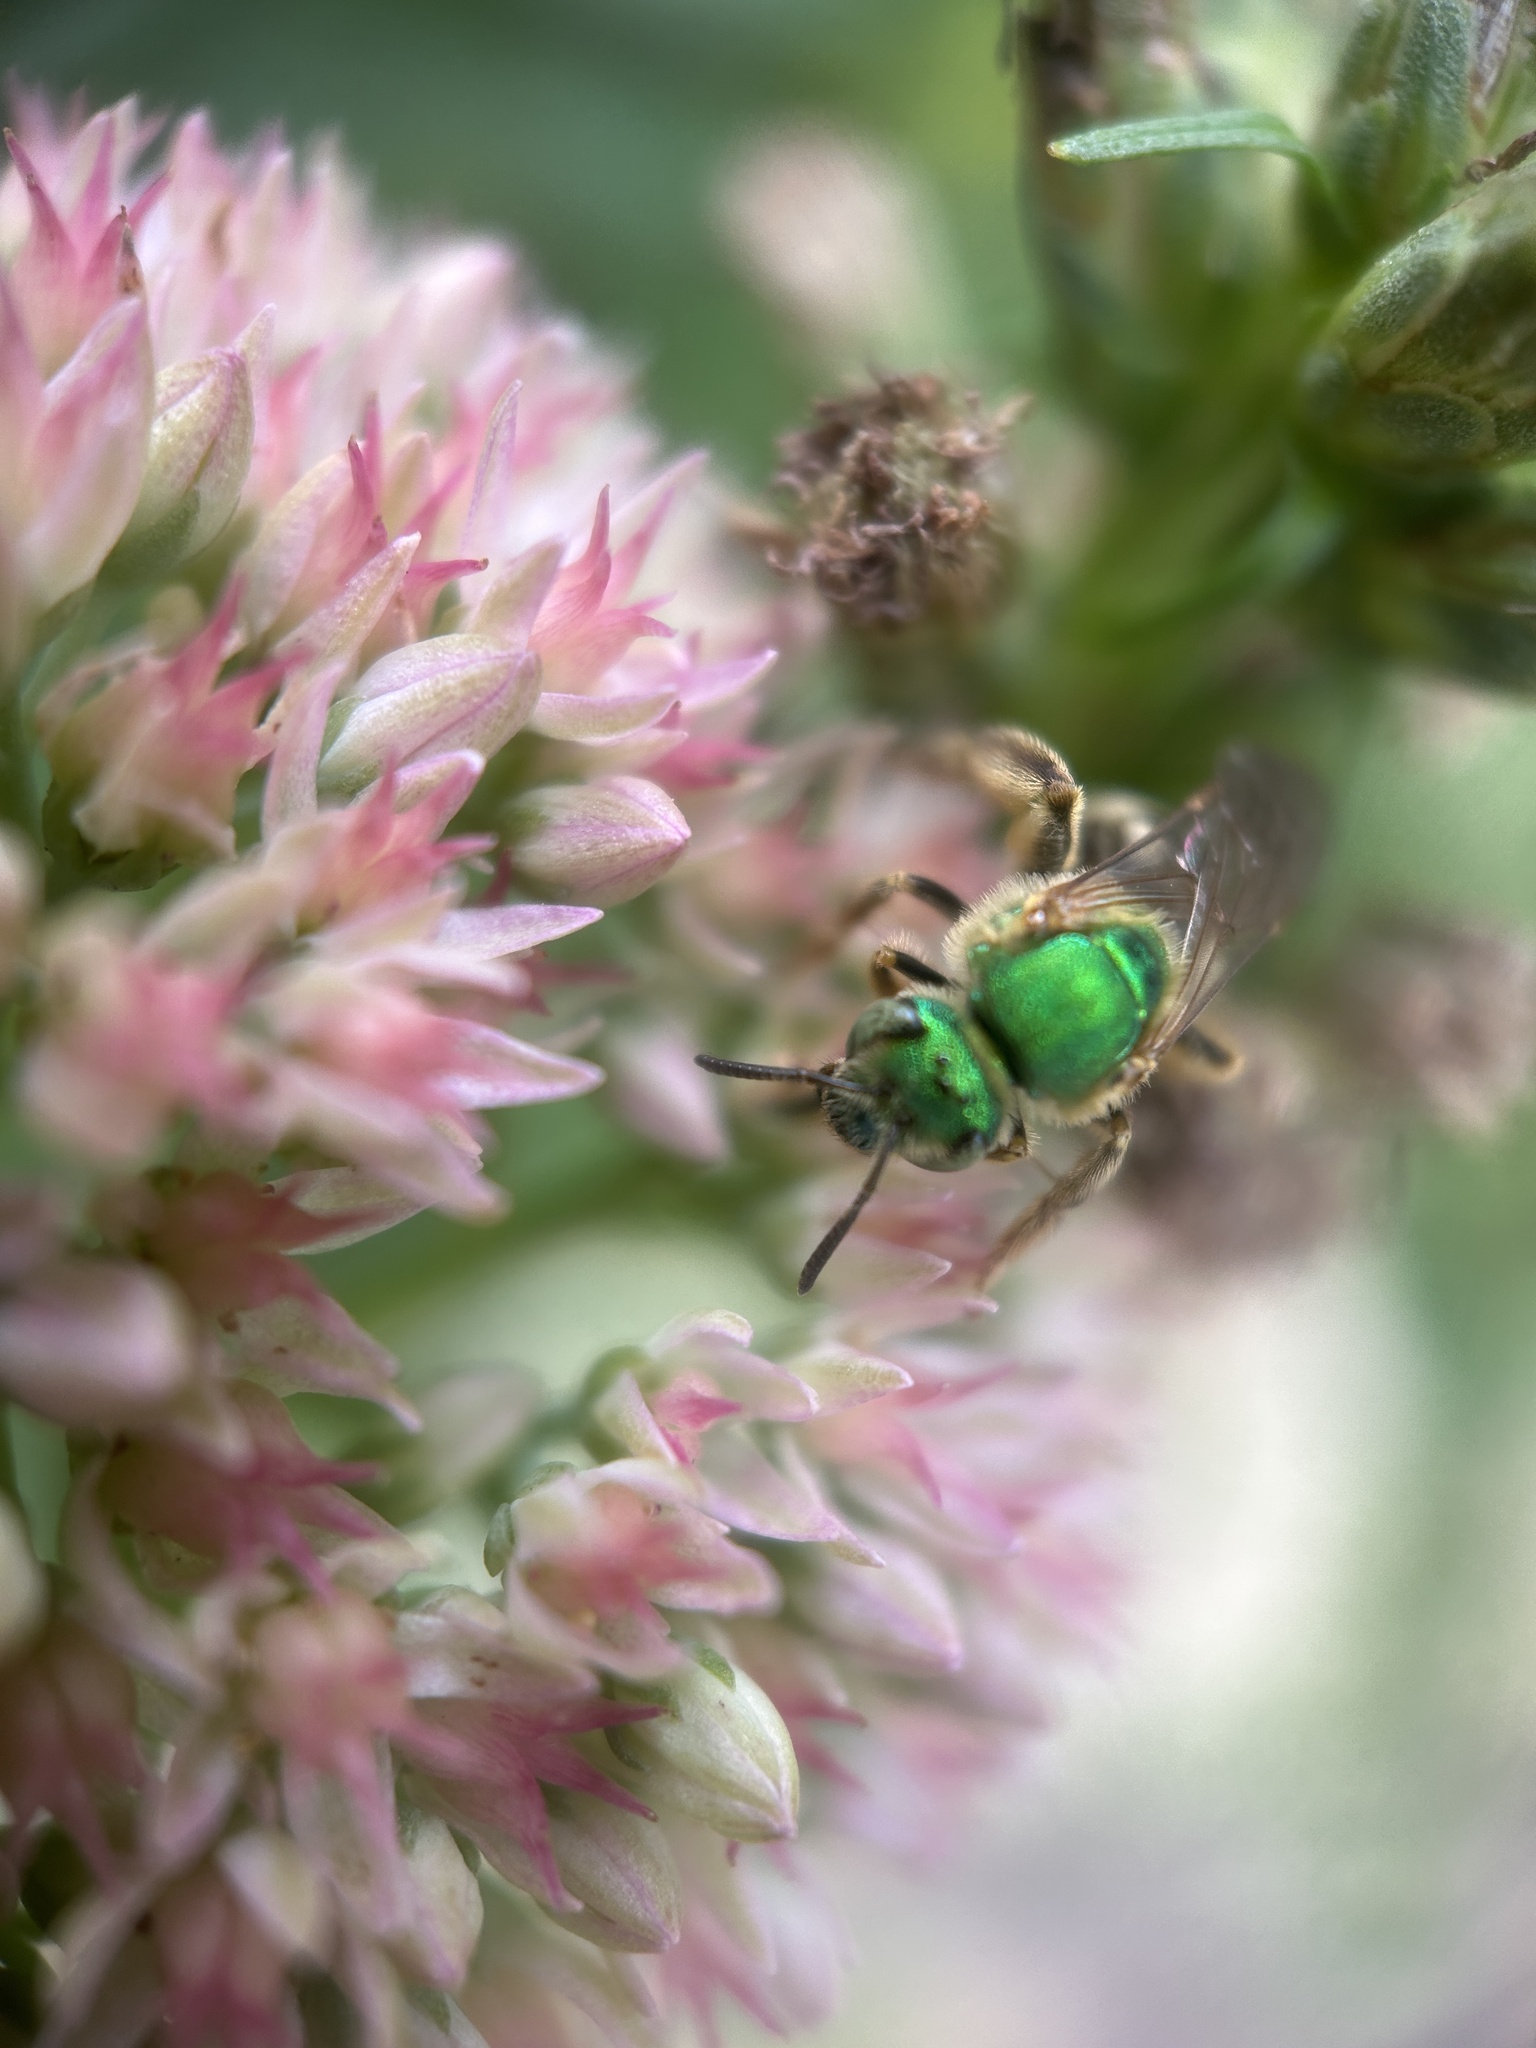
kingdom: Animalia
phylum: Arthropoda
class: Insecta
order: Hymenoptera
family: Halictidae
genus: Agapostemon
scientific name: Agapostemon virescens
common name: Bicolored striped sweat bee
